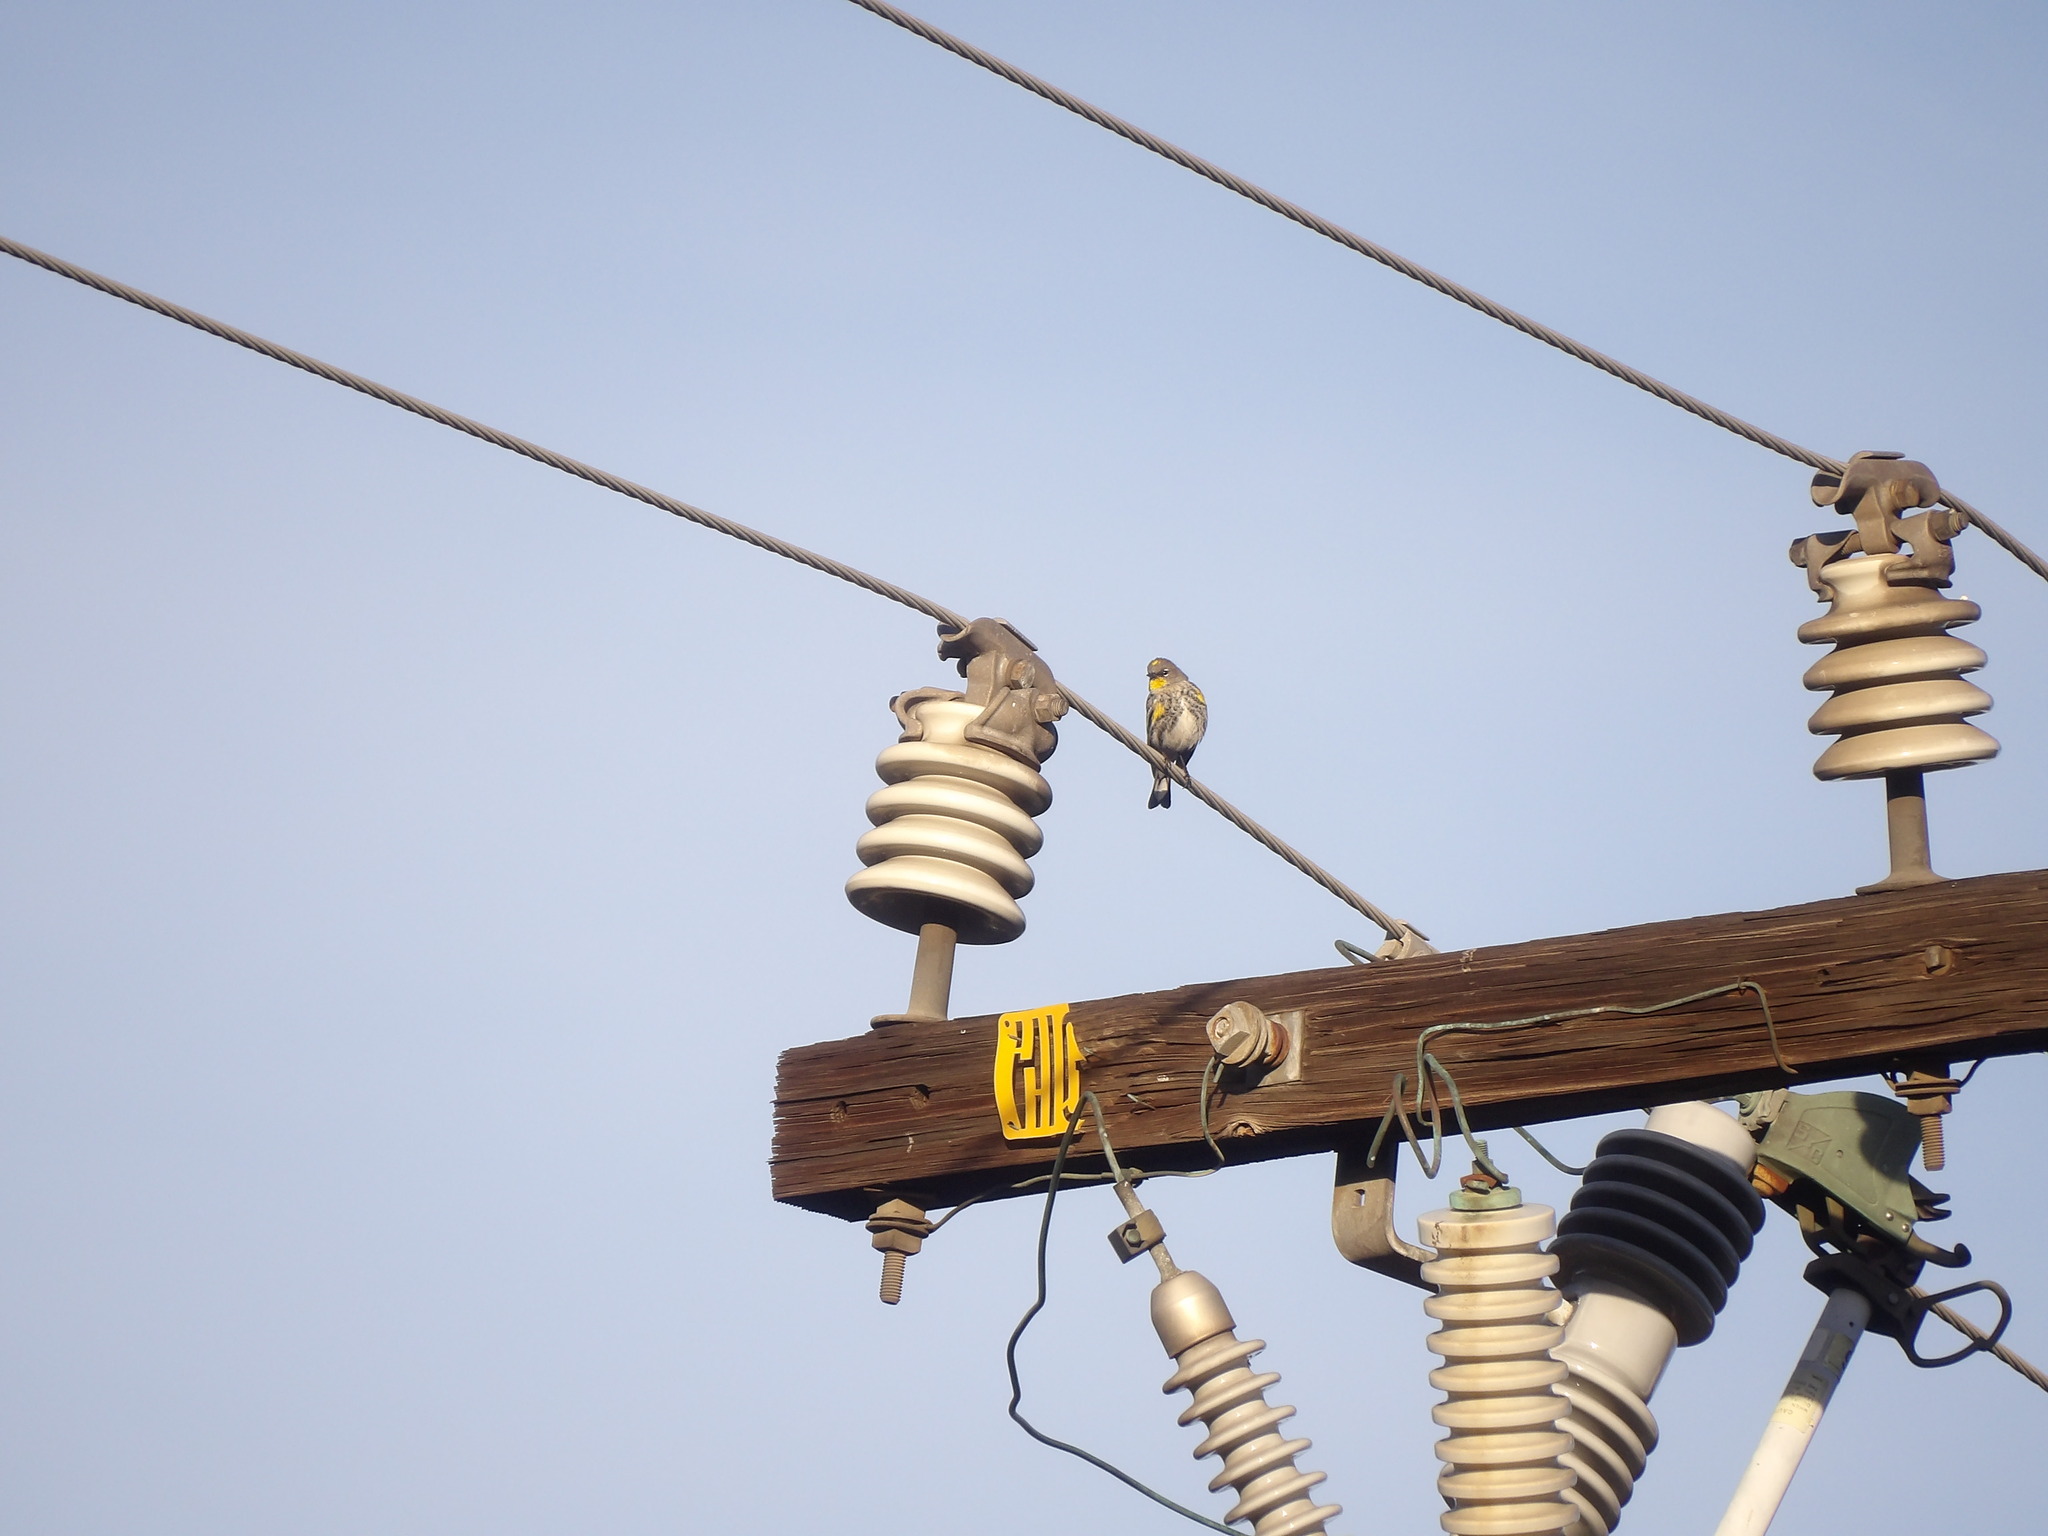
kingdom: Animalia
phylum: Chordata
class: Aves
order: Passeriformes
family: Parulidae
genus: Setophaga
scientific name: Setophaga coronata
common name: Myrtle warbler
